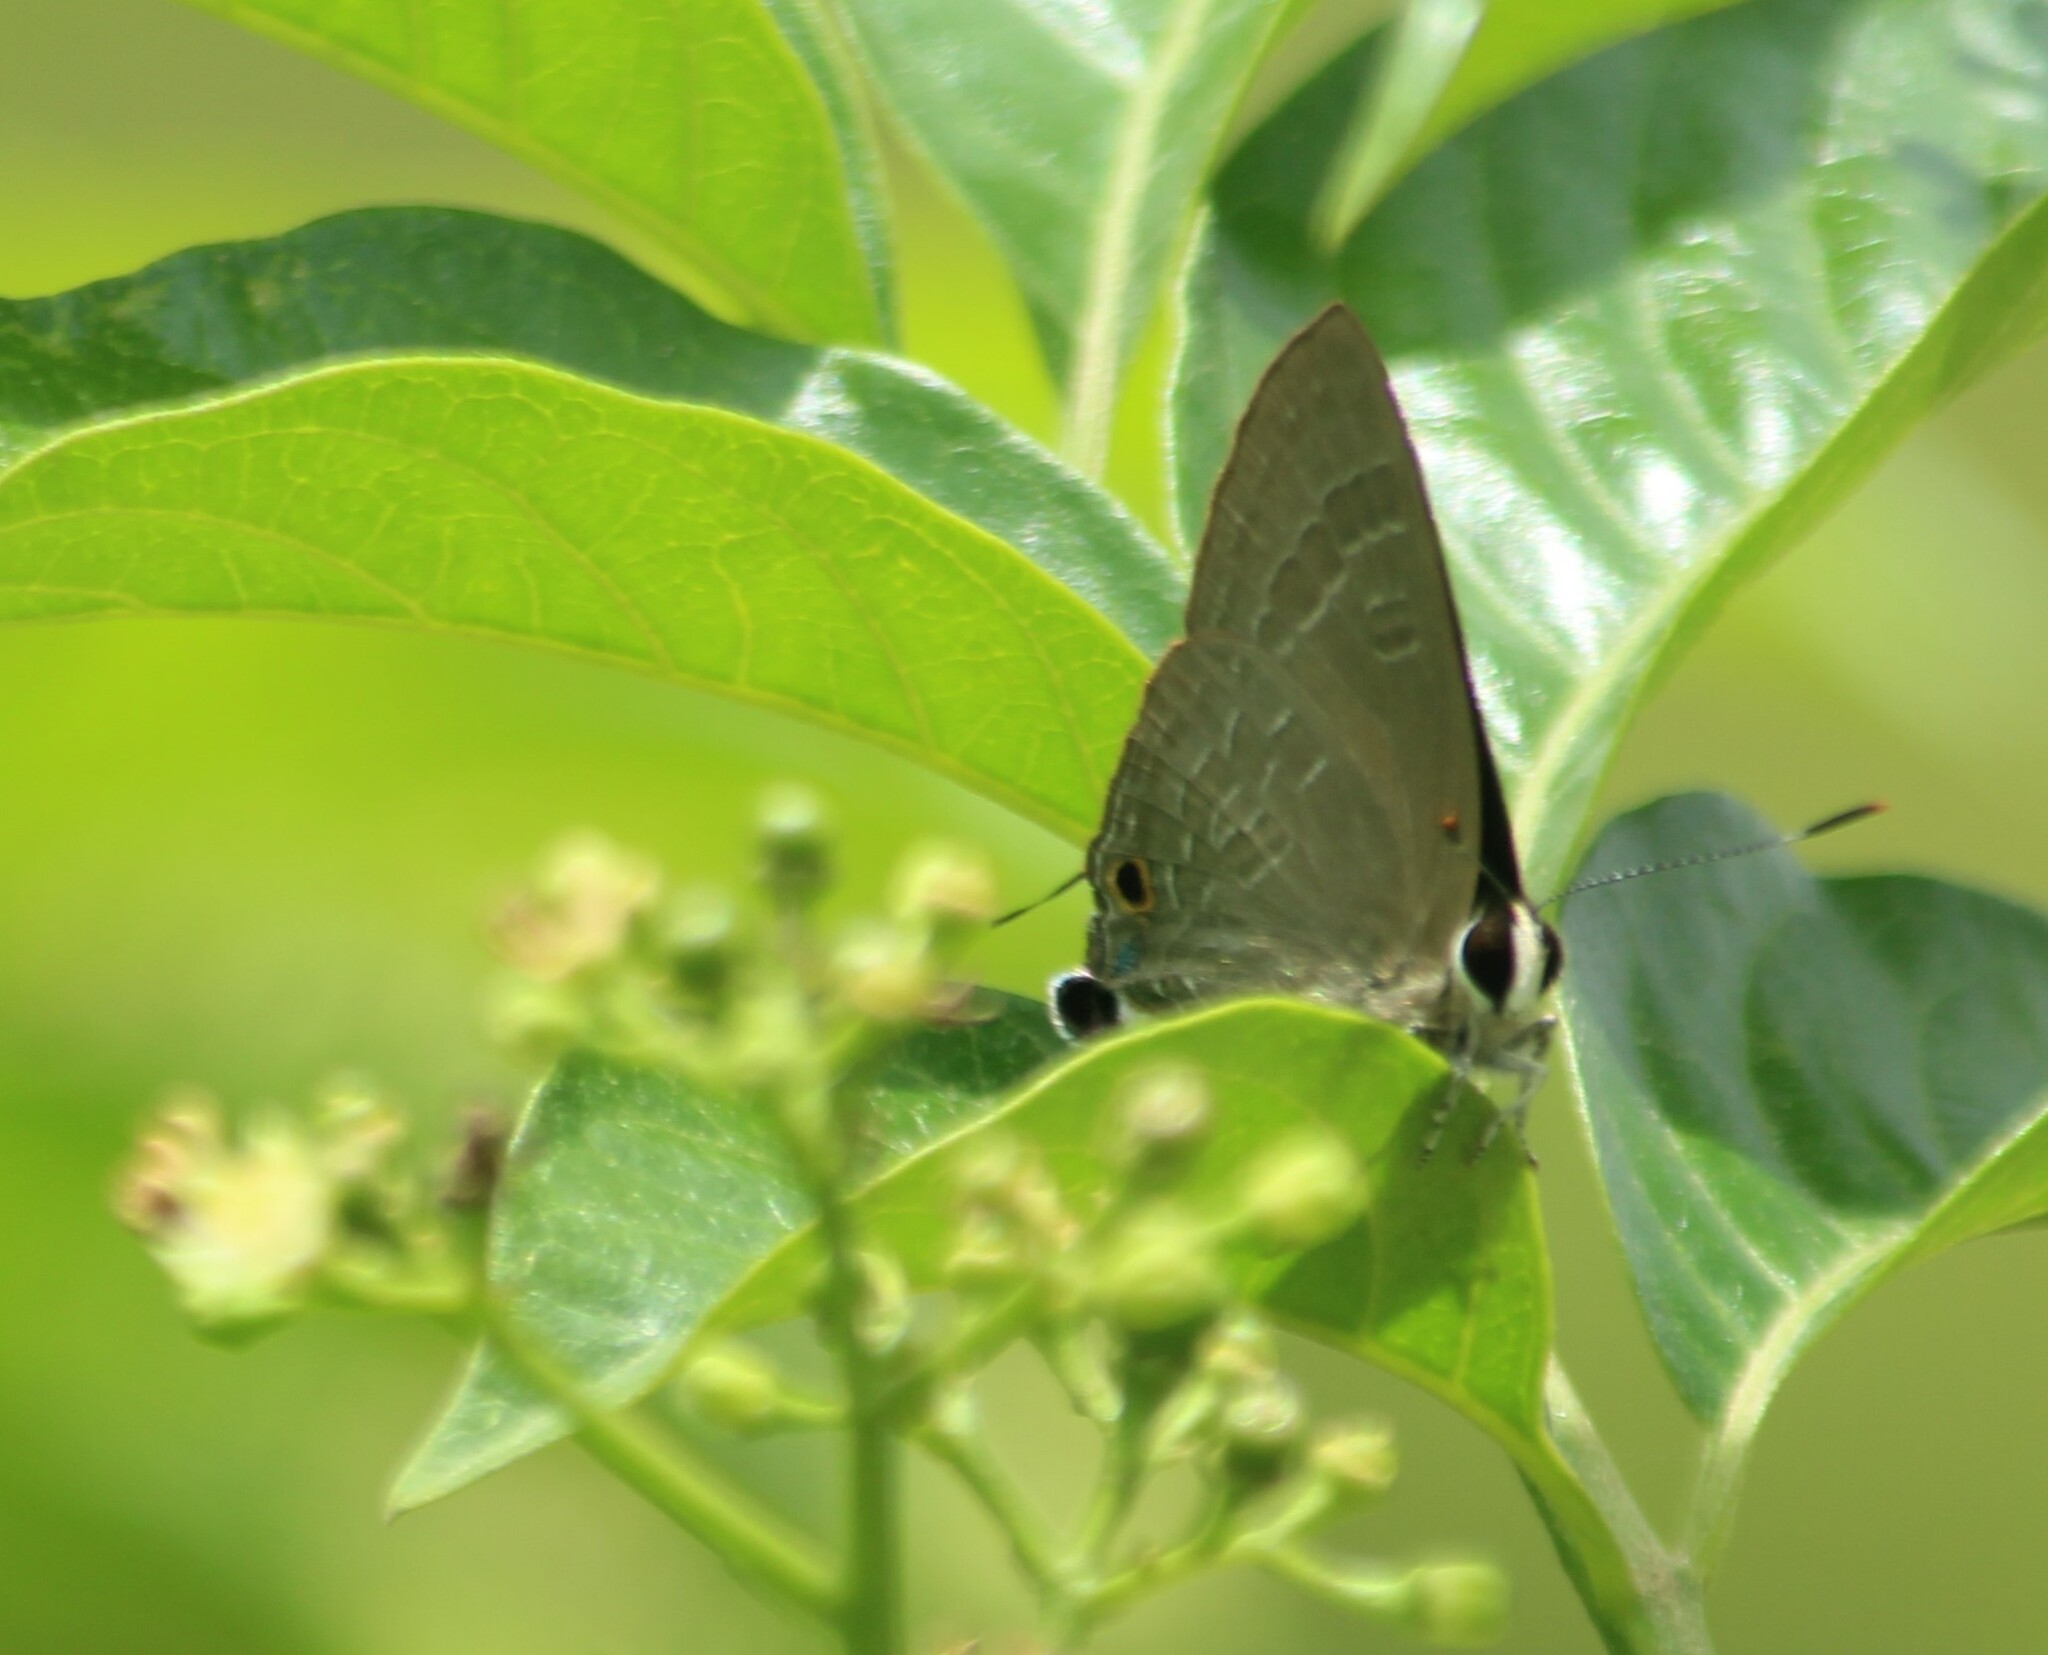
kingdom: Animalia
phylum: Arthropoda
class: Insecta
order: Lepidoptera
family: Lycaenidae
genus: Deudorix
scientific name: Deudorix epijarbas
